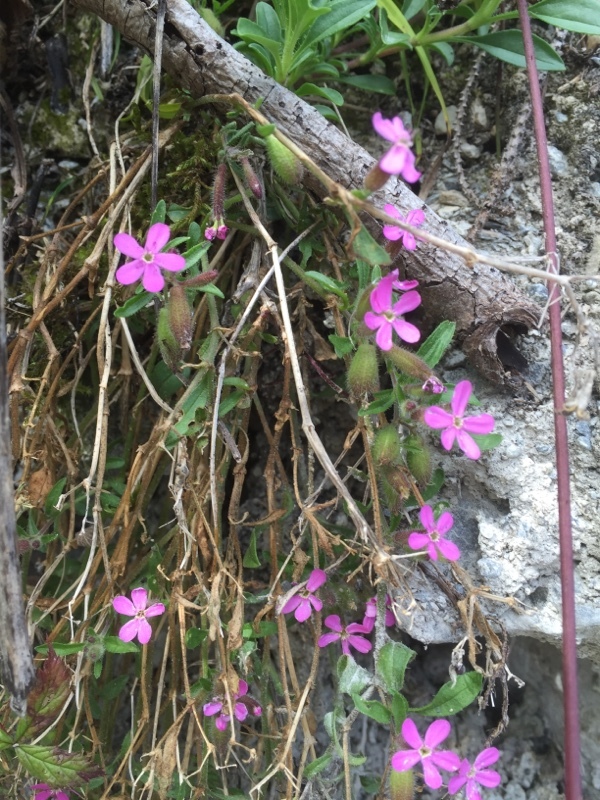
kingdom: Plantae
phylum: Tracheophyta
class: Magnoliopsida
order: Caryophyllales
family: Caryophyllaceae
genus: Saponaria
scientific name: Saponaria ocymoides
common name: Rock soapwort
